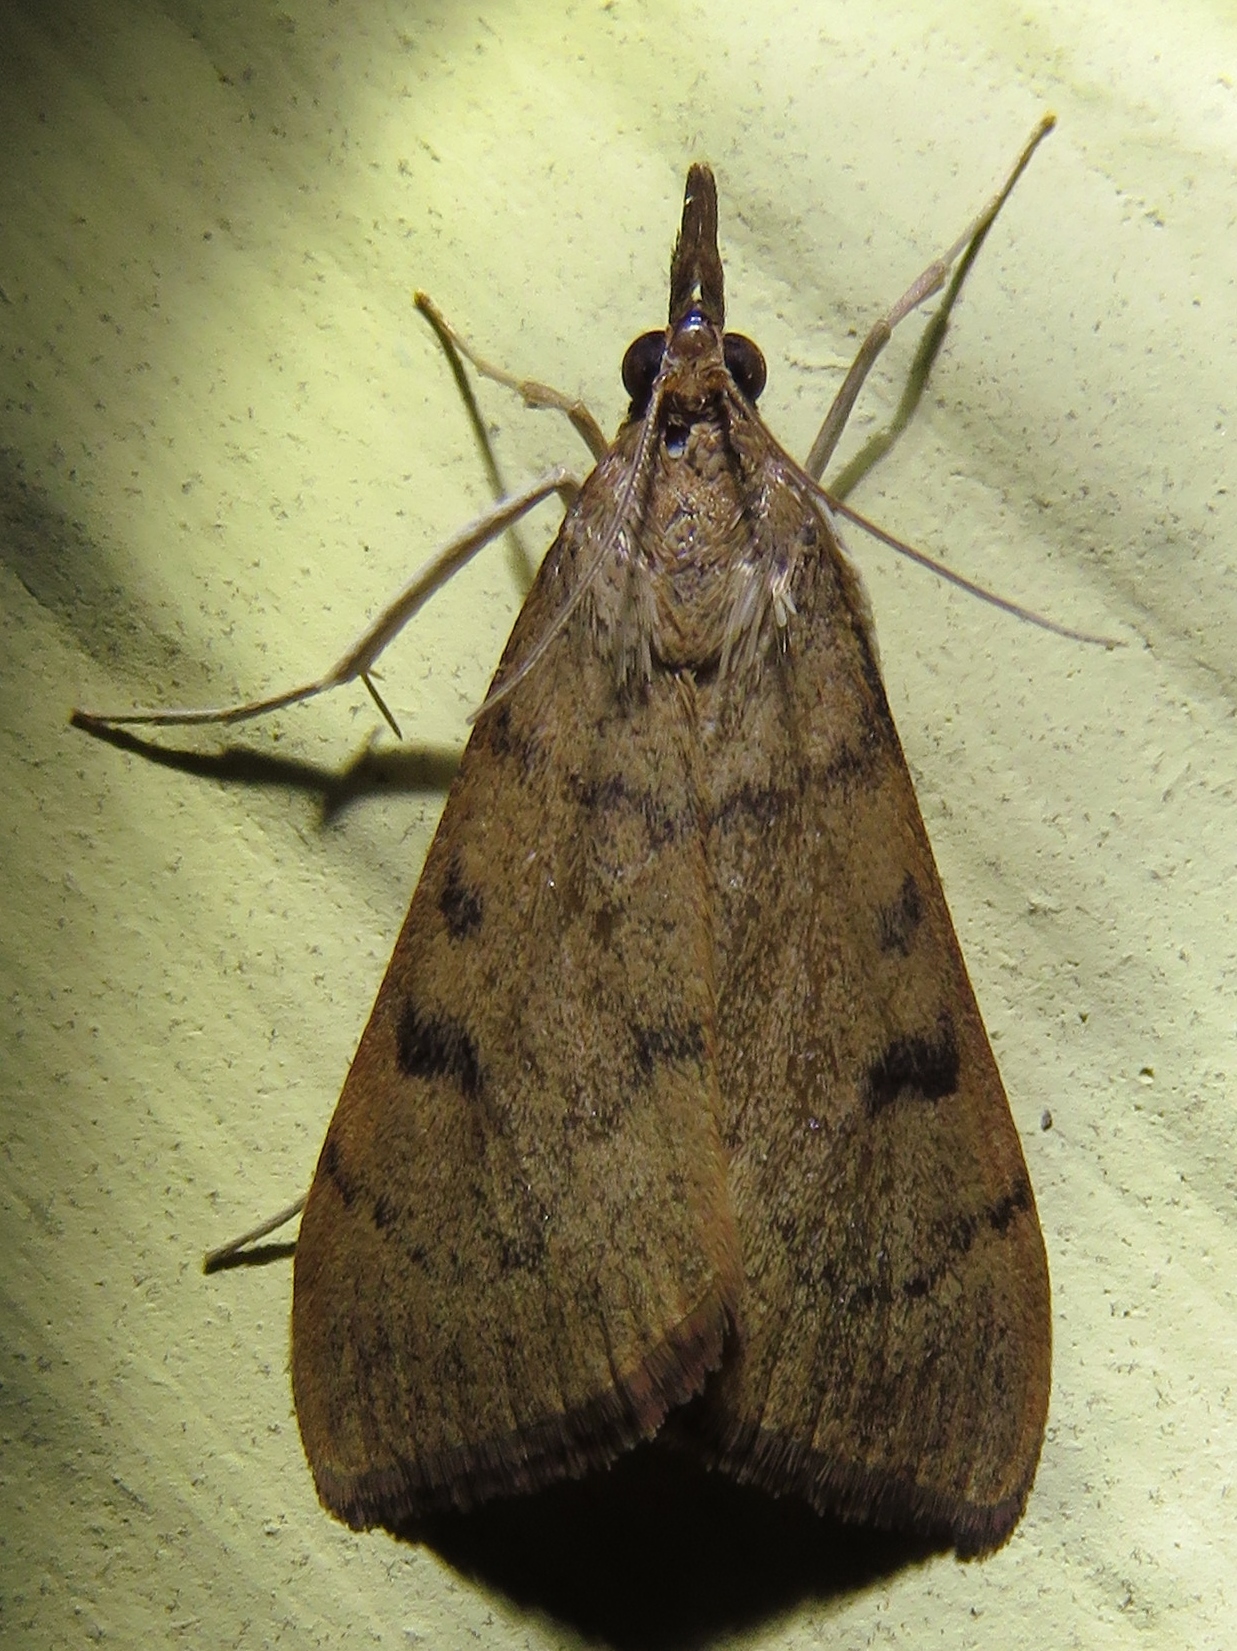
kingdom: Animalia
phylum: Arthropoda
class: Insecta
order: Lepidoptera
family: Crambidae
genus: Uresiphita
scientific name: Uresiphita reversalis
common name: Genista broom moth
